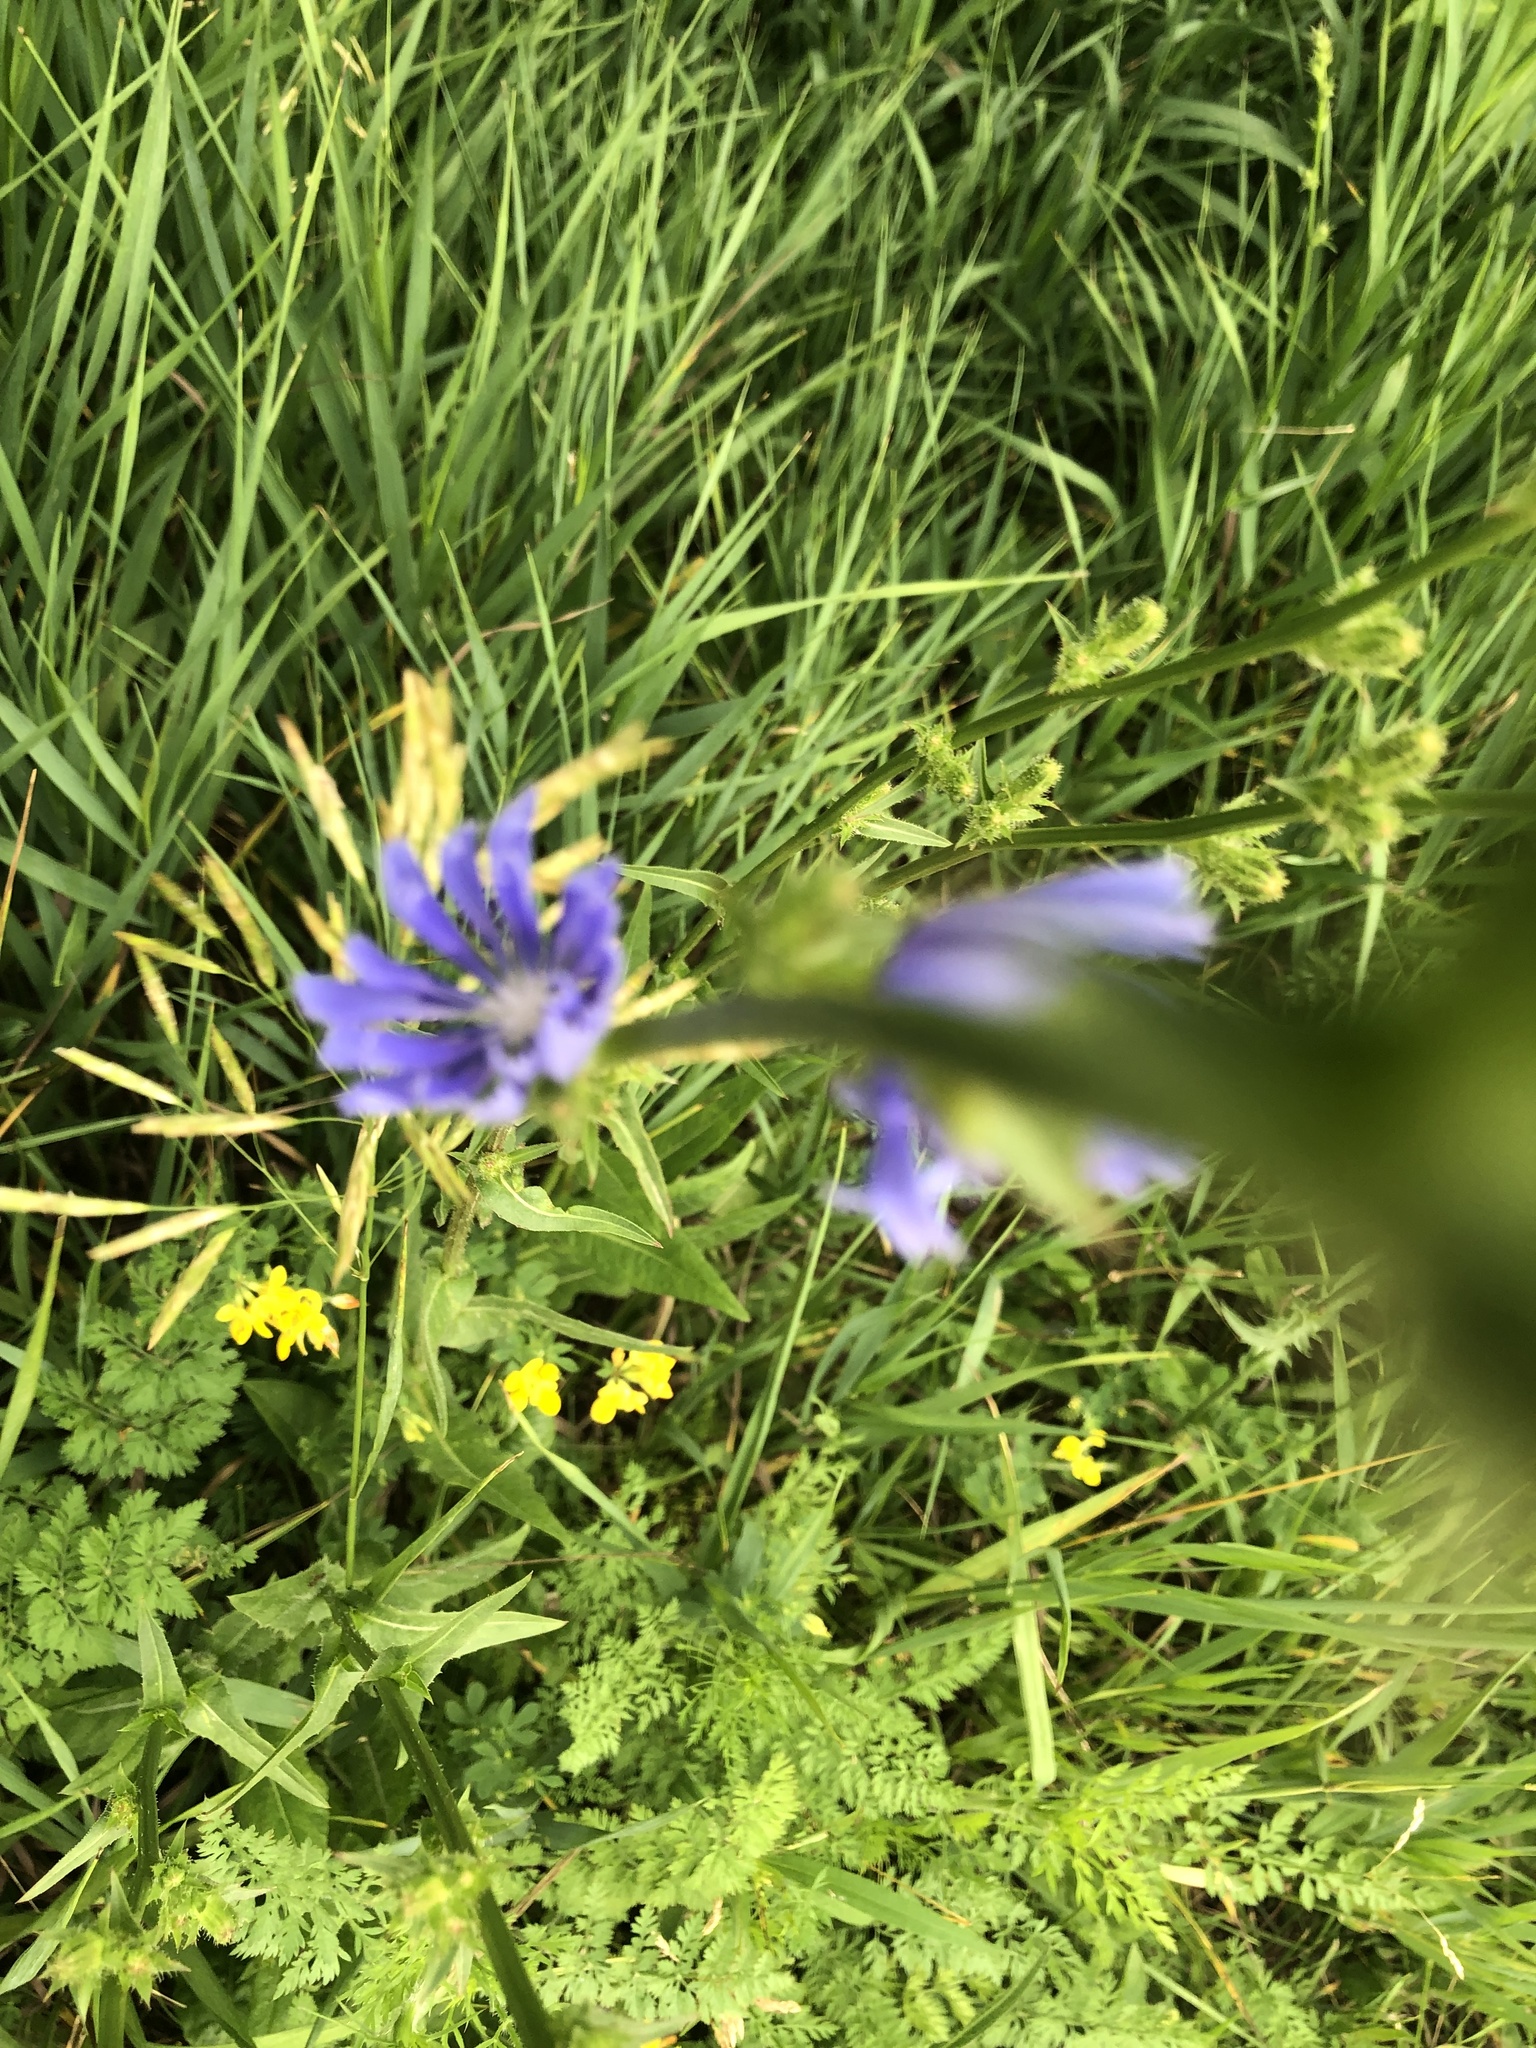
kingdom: Plantae
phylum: Tracheophyta
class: Magnoliopsida
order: Asterales
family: Asteraceae
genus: Cichorium
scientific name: Cichorium intybus
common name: Chicory
